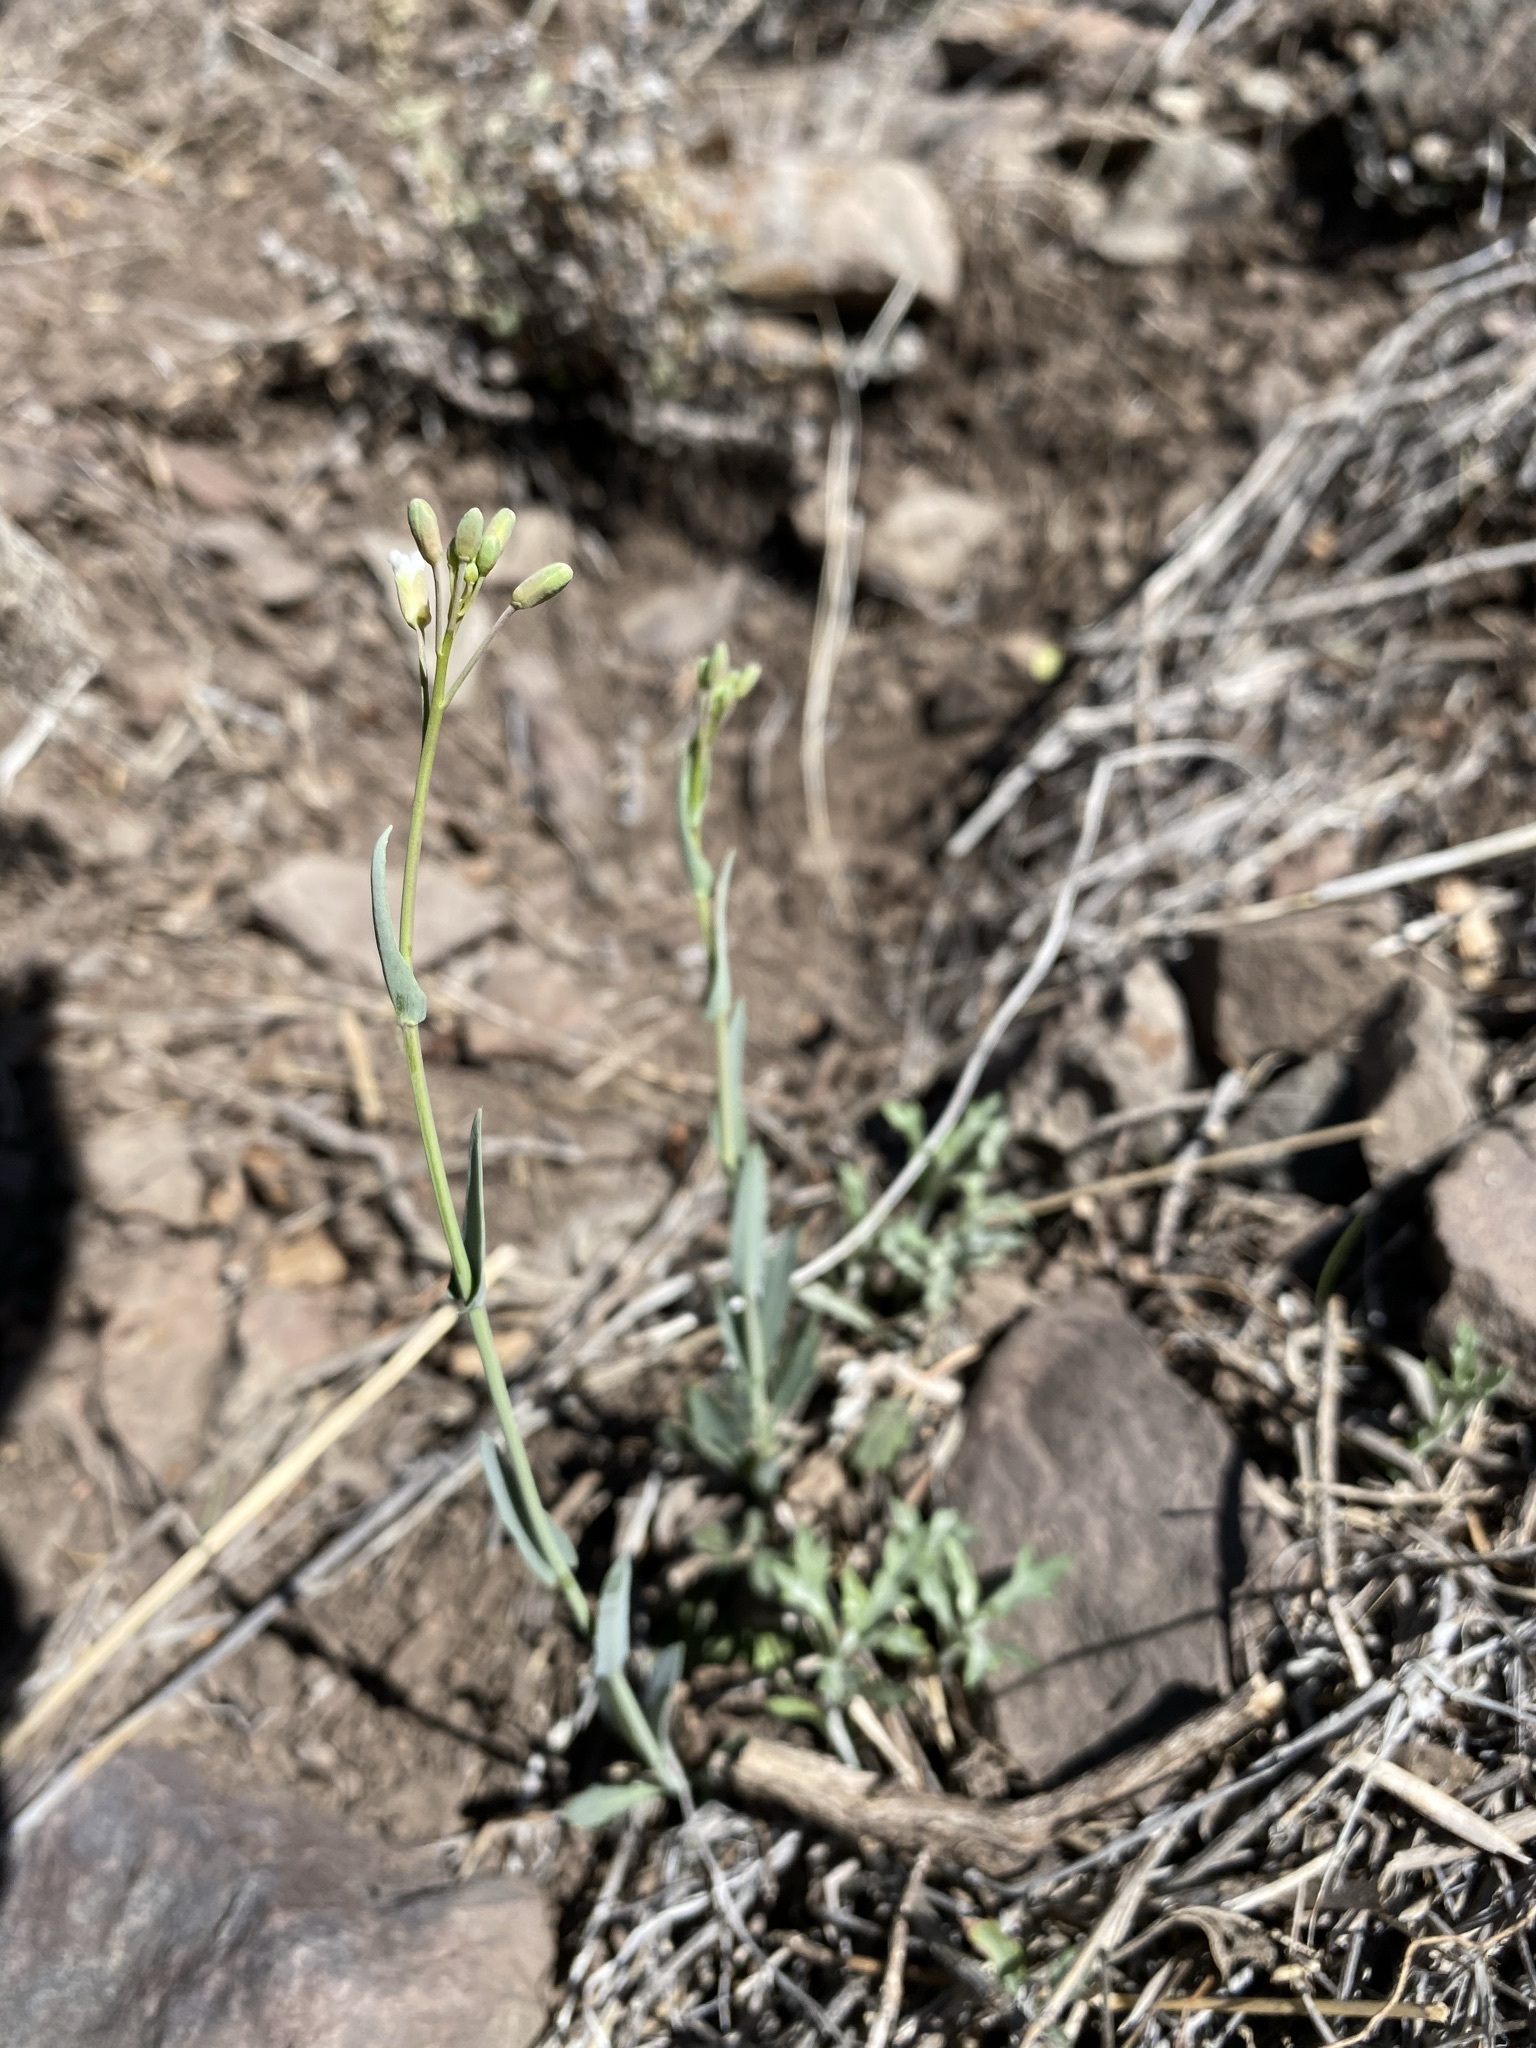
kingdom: Plantae
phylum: Tracheophyta
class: Magnoliopsida
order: Brassicales
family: Brassicaceae
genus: Boechera
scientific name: Boechera texana
